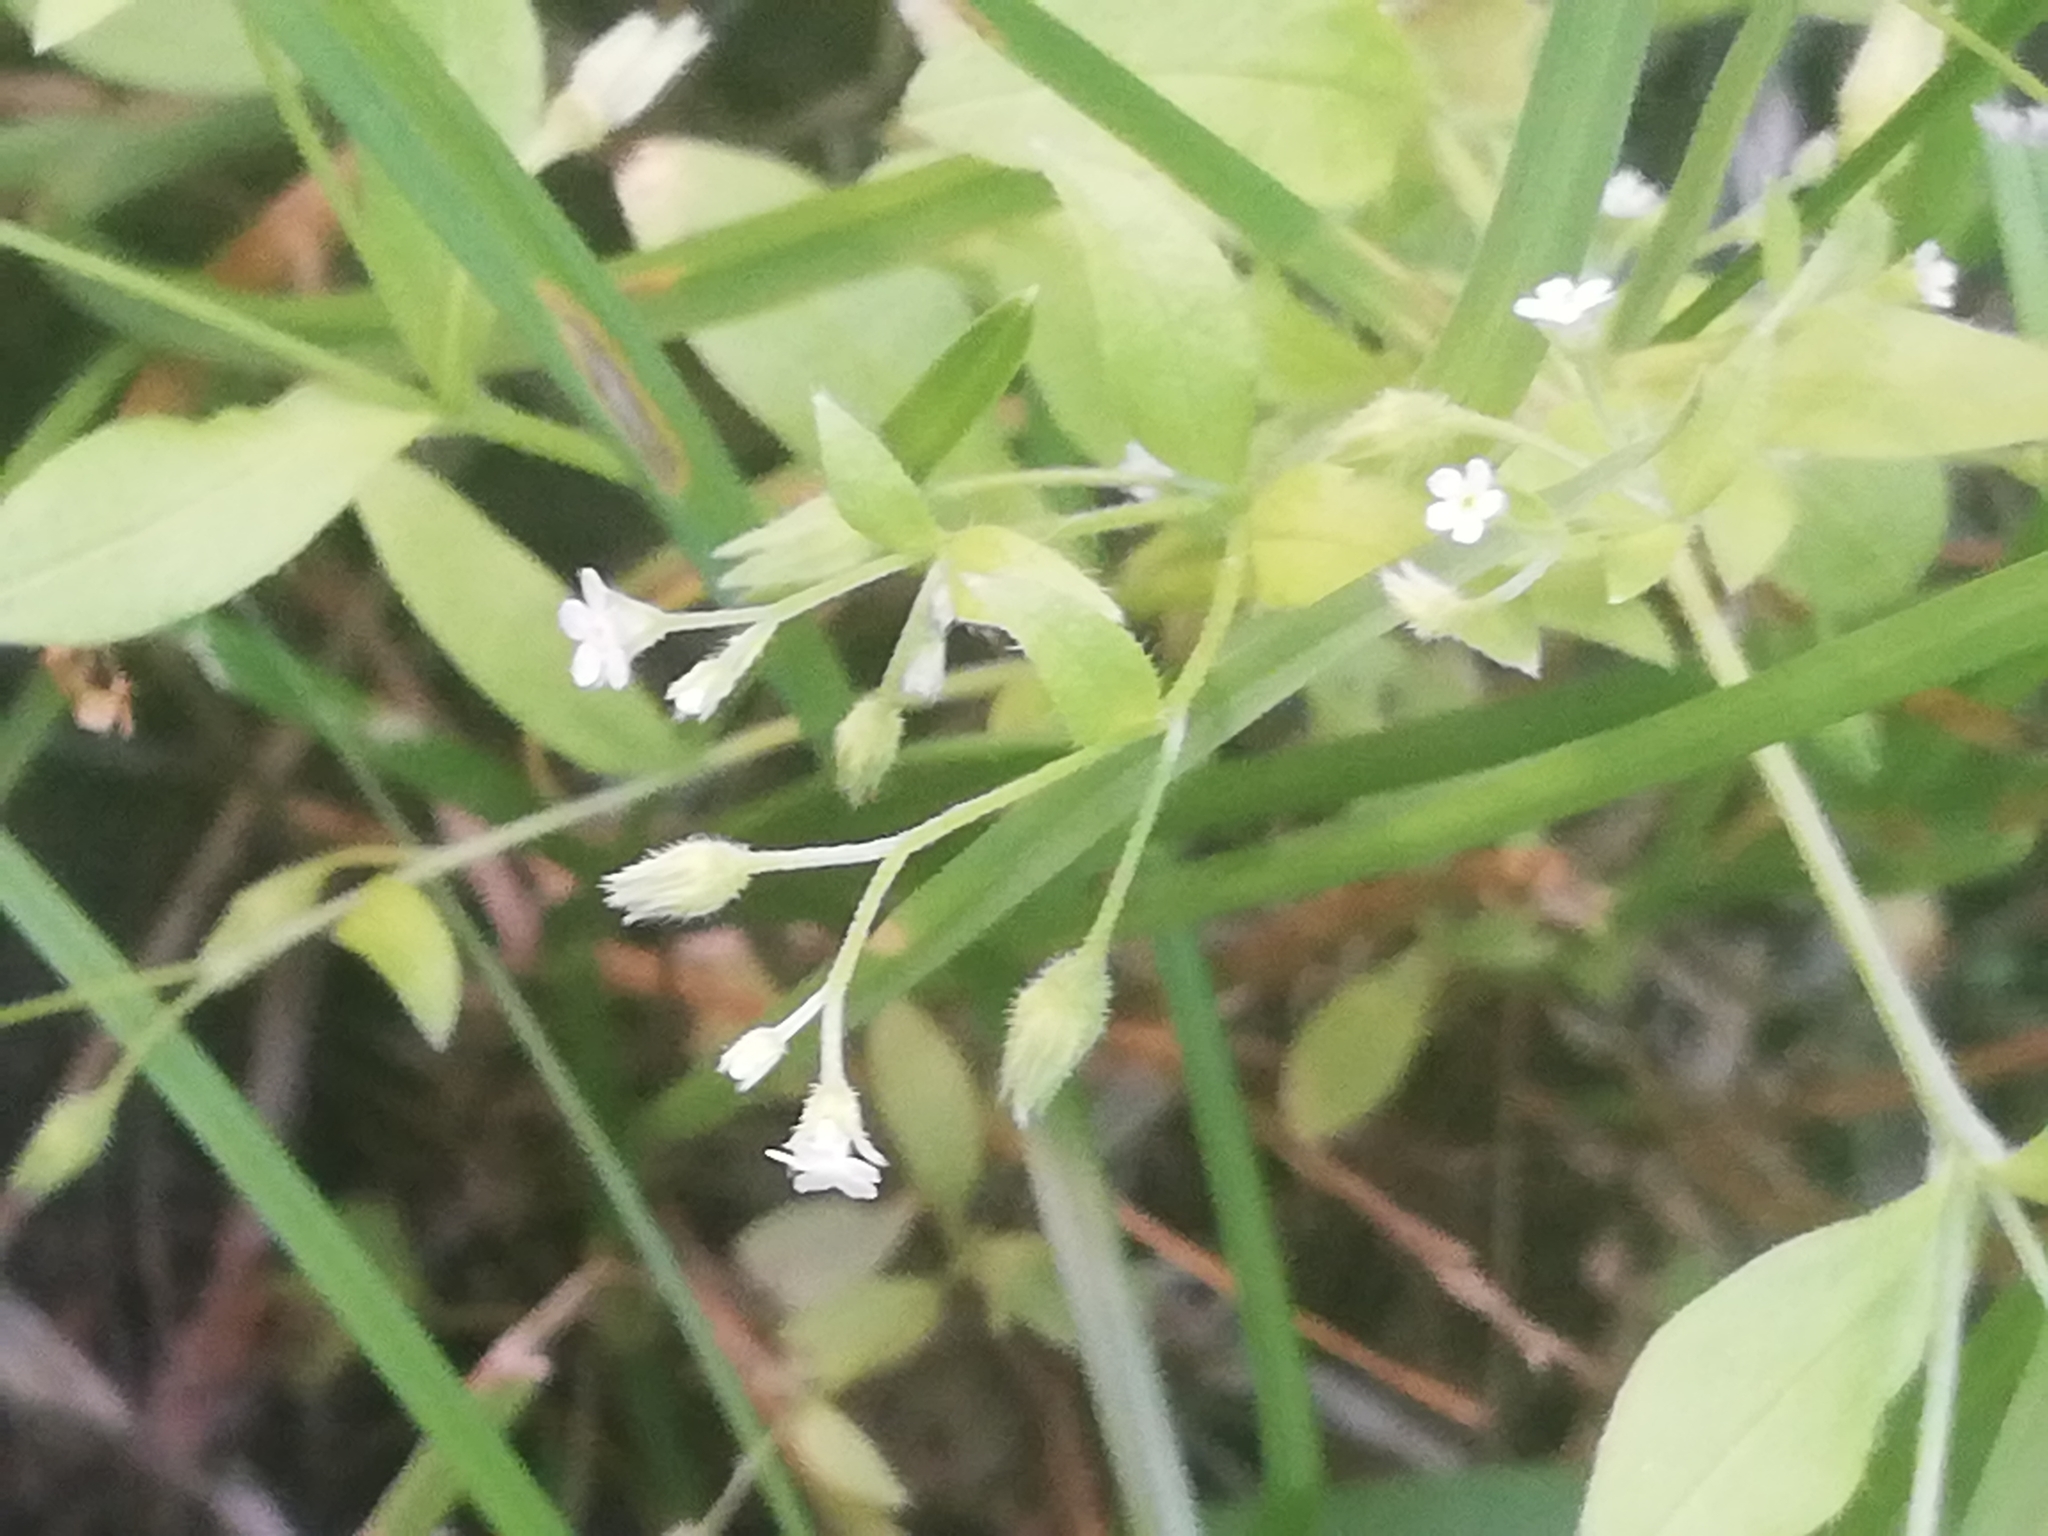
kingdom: Plantae
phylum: Tracheophyta
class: Magnoliopsida
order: Boraginales
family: Boraginaceae
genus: Myosotis
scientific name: Myosotis sparsiflora
